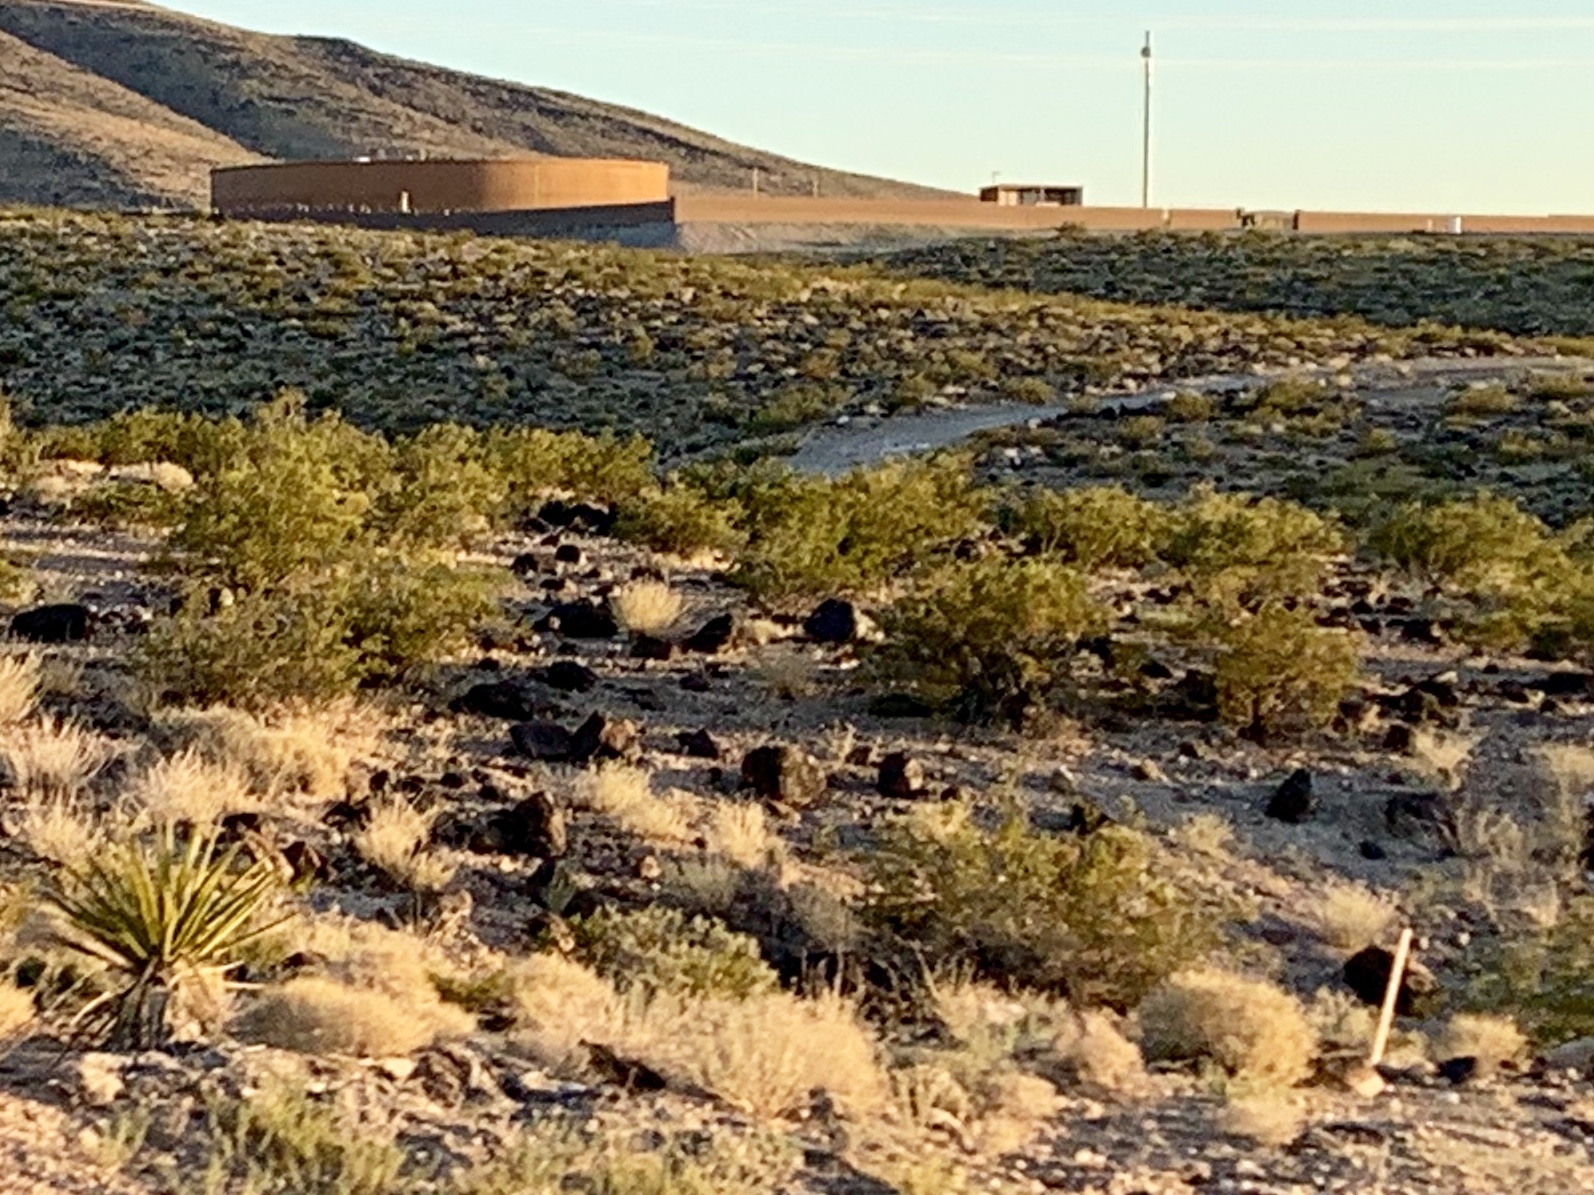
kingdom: Plantae
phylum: Tracheophyta
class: Magnoliopsida
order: Zygophyllales
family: Zygophyllaceae
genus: Larrea
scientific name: Larrea tridentata
